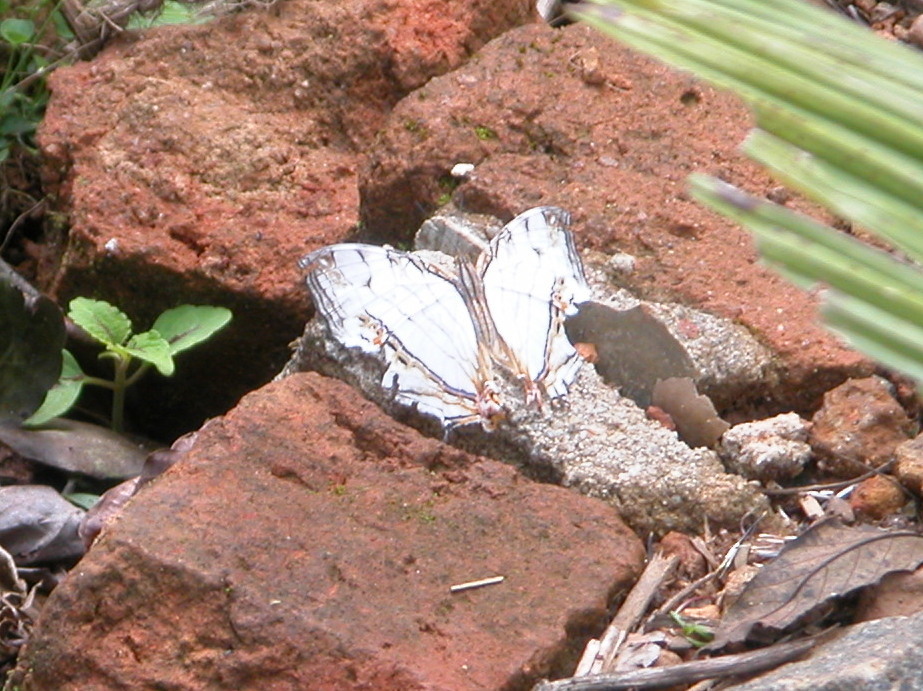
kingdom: Animalia
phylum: Arthropoda
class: Insecta
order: Lepidoptera
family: Nymphalidae
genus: Cyrestis
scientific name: Cyrestis thyodamas
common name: Common mapwing
